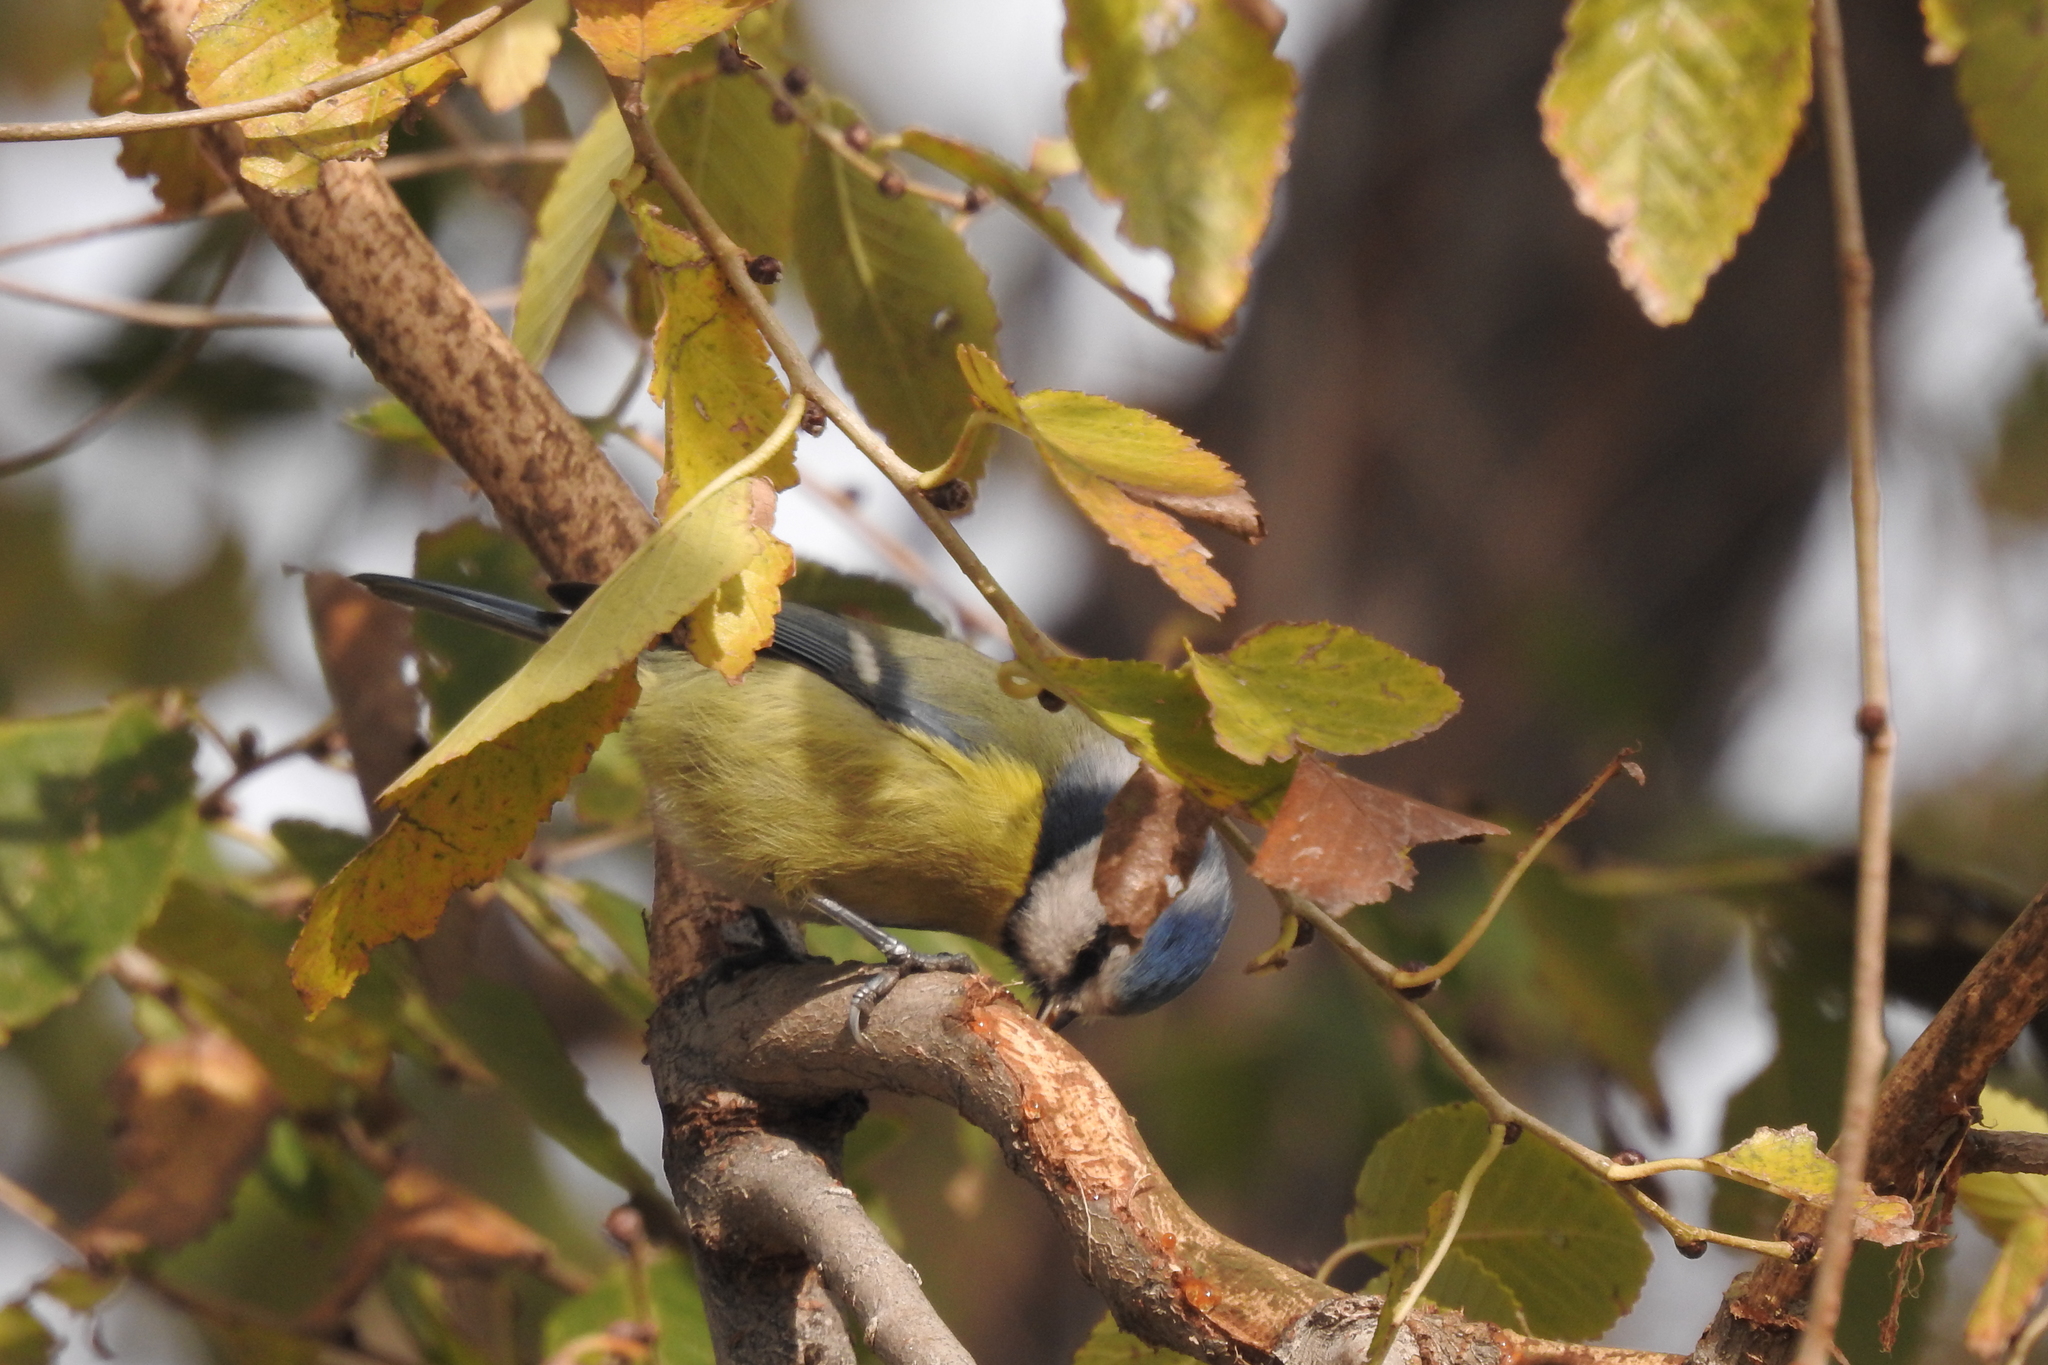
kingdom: Animalia
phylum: Chordata
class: Aves
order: Passeriformes
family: Paridae
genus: Cyanistes
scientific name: Cyanistes caeruleus
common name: Eurasian blue tit
